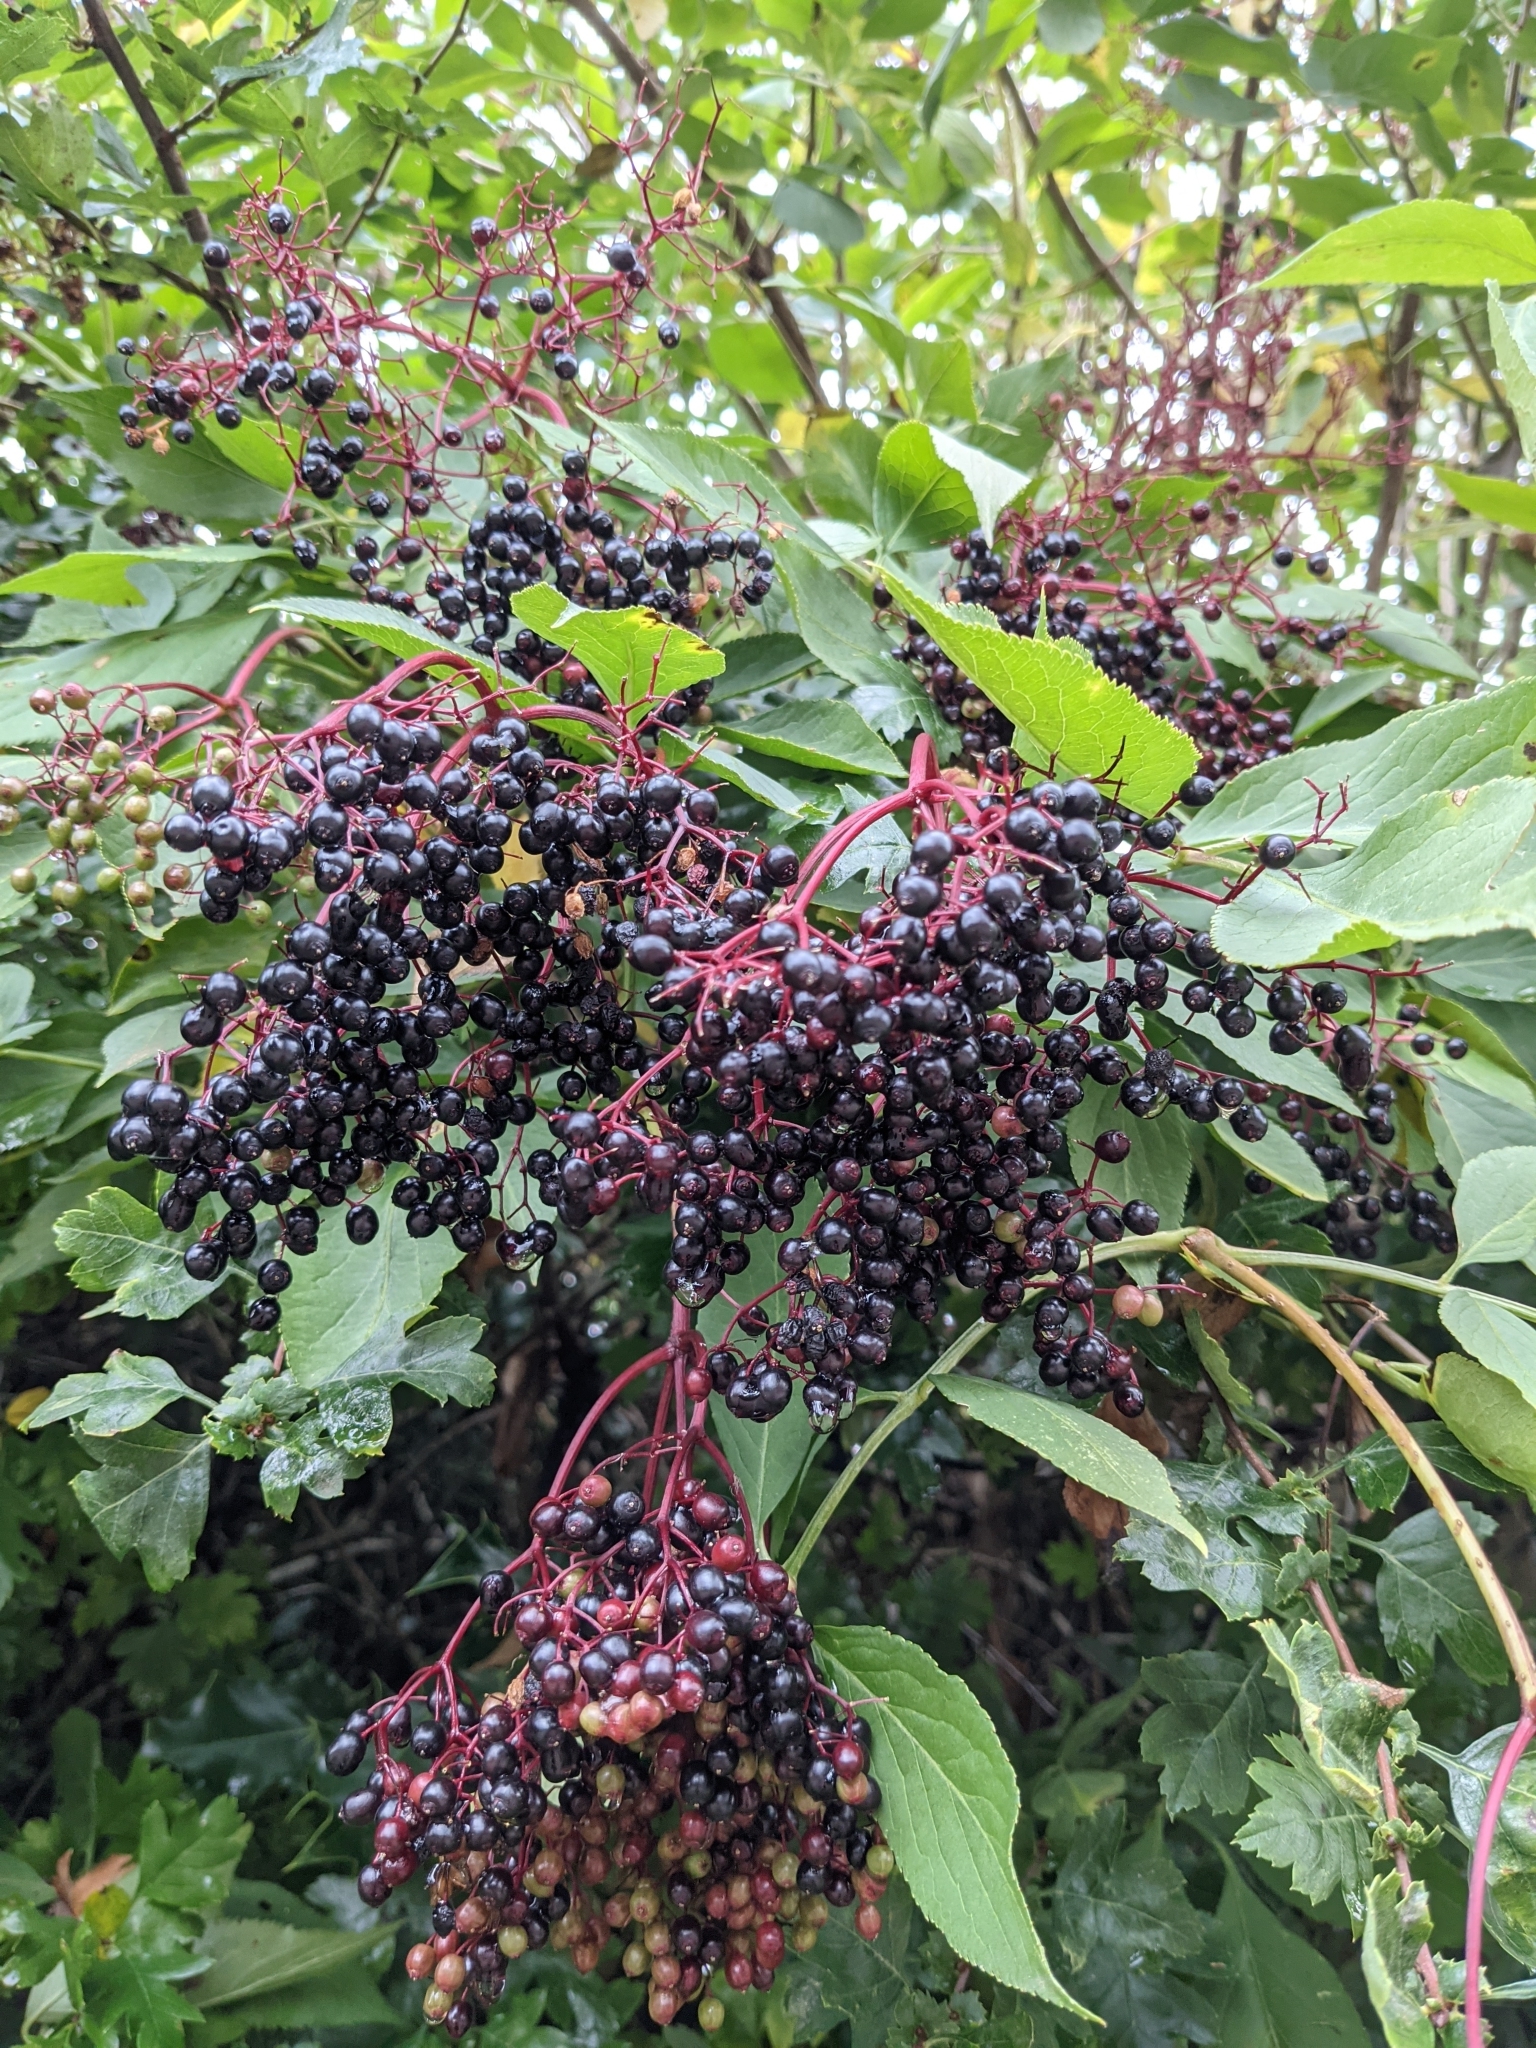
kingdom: Plantae
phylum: Tracheophyta
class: Magnoliopsida
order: Dipsacales
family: Viburnaceae
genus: Sambucus
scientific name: Sambucus nigra
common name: Elder
